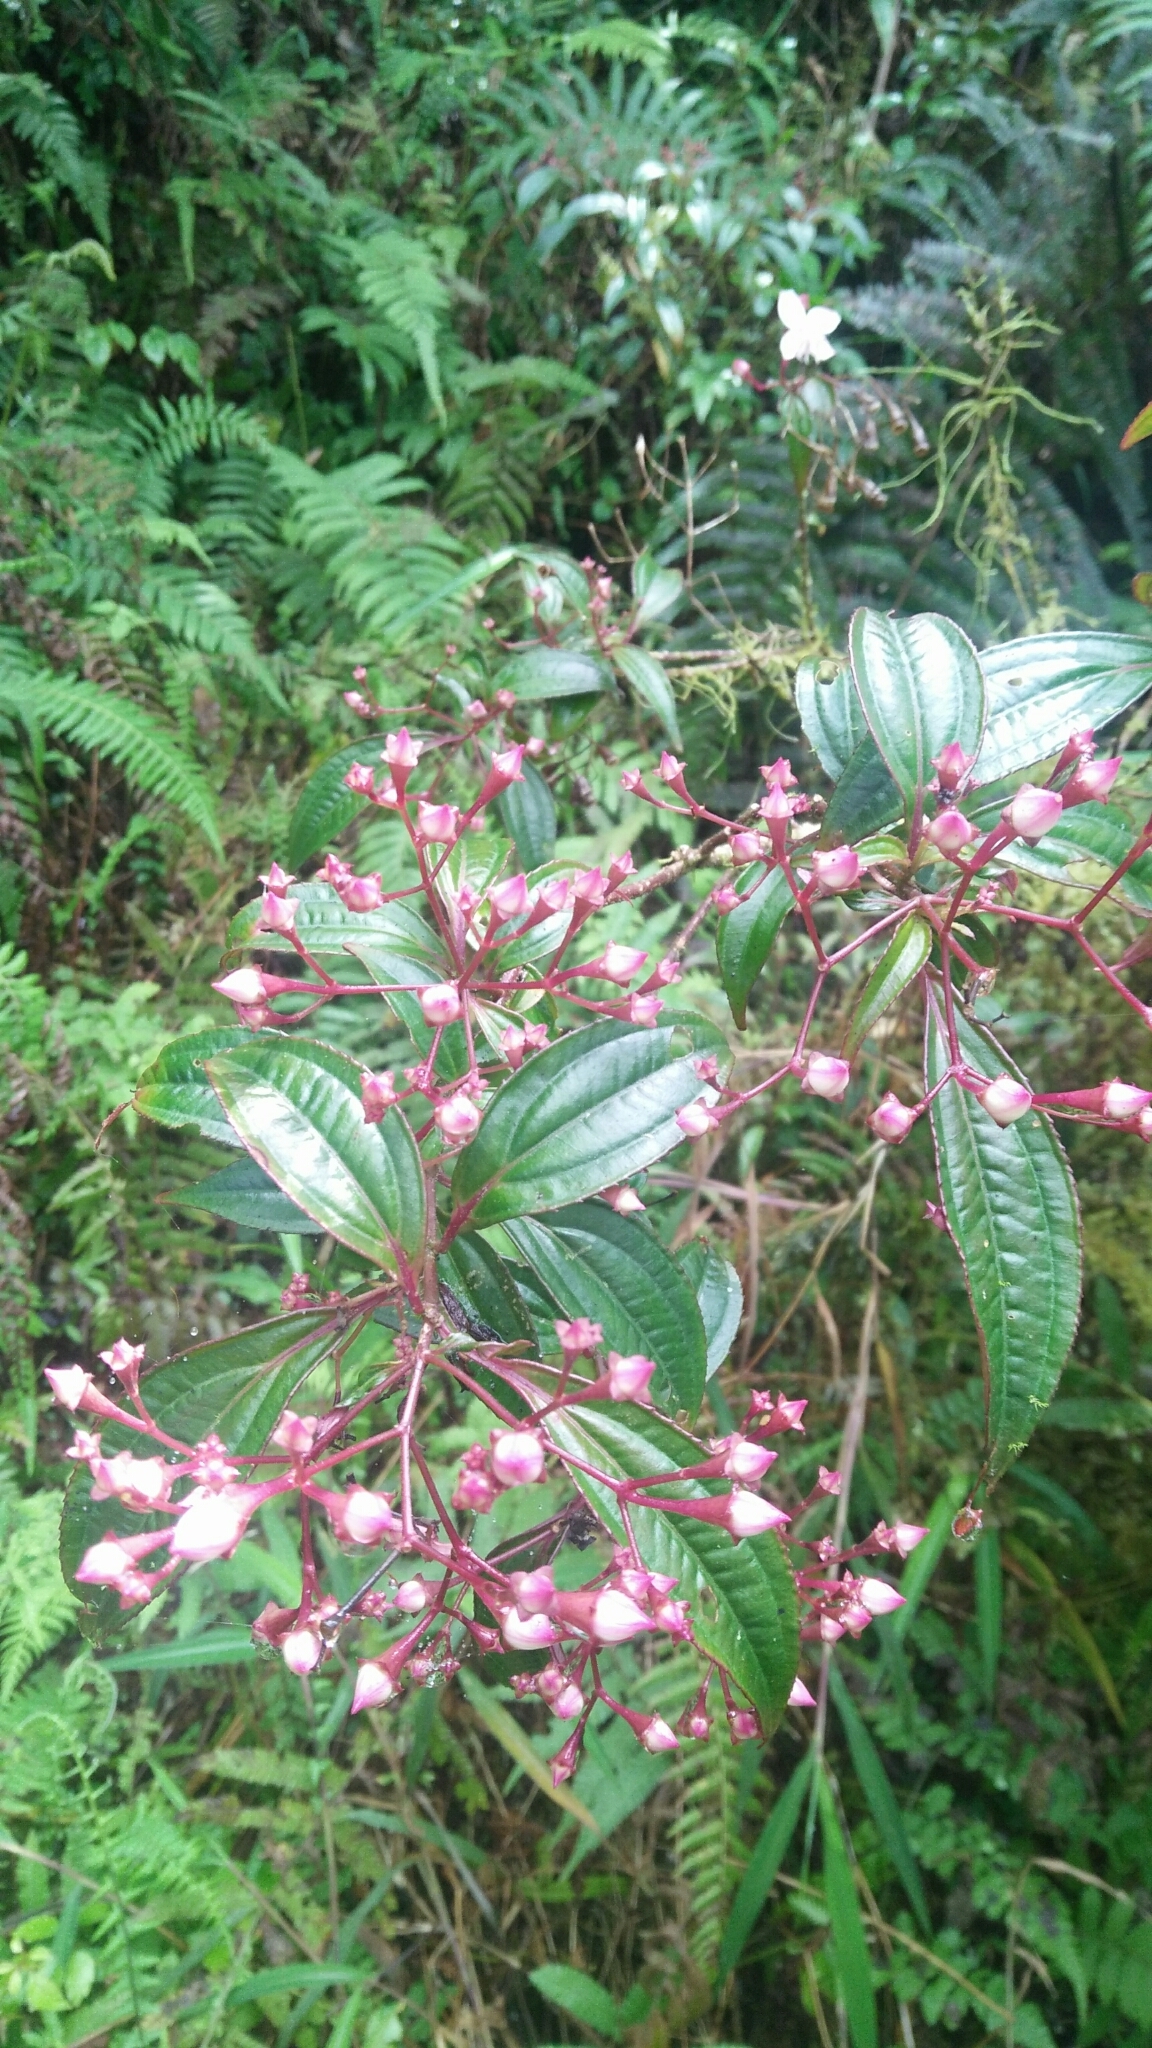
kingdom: Plantae
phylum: Tracheophyta
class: Magnoliopsida
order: Myrtales
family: Melastomataceae
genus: Bredia
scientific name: Bredia oldhamii
